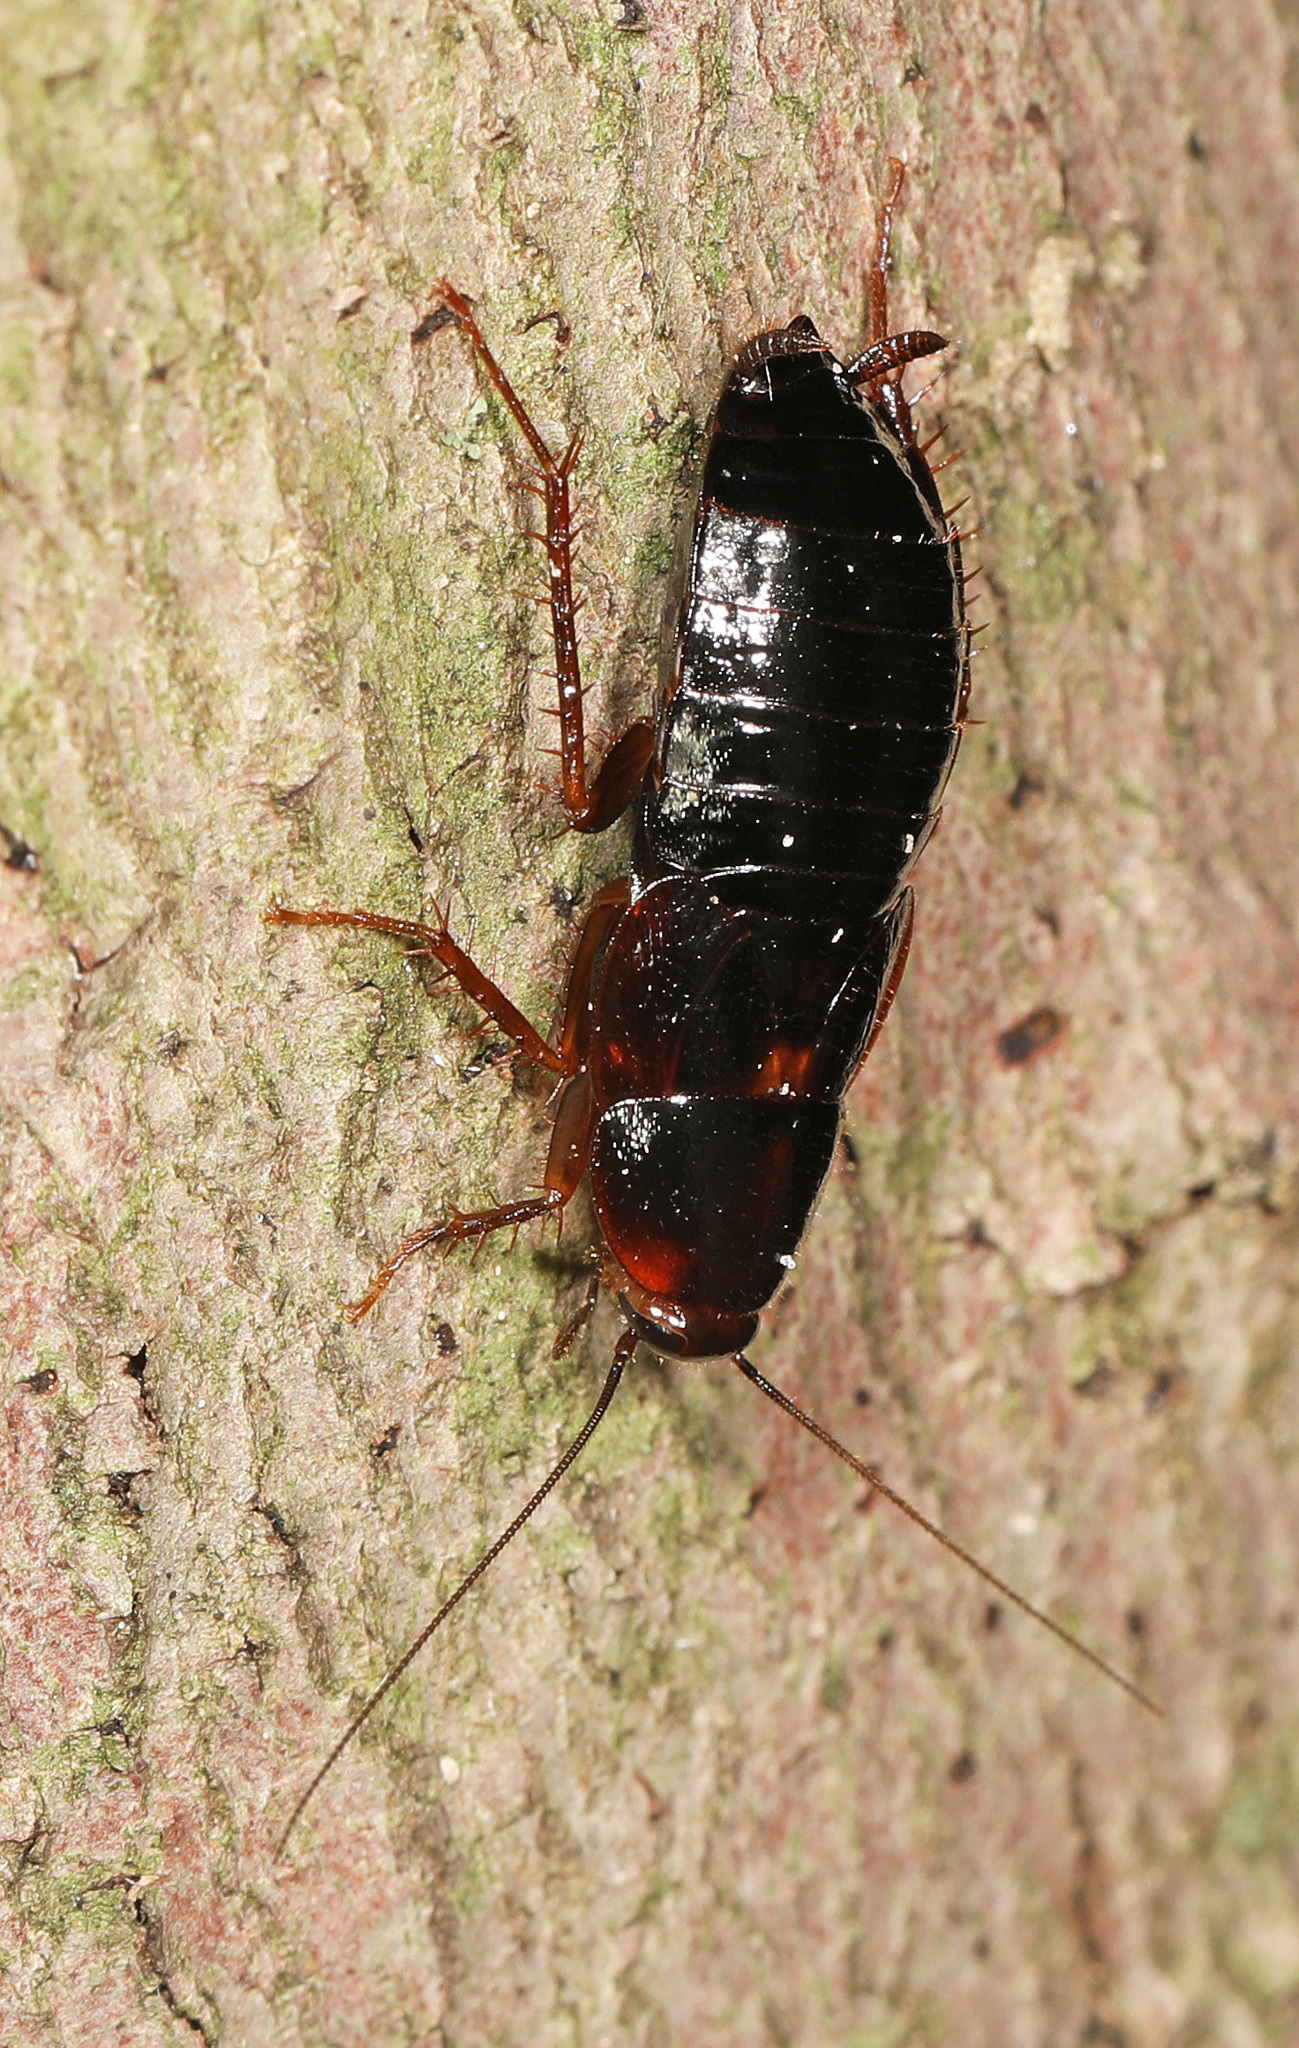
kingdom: Animalia
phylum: Arthropoda
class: Insecta
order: Blattodea
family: Ectobiidae
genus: Parcoblatta
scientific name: Parcoblatta uhleriana
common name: Uhler's wood cockroach
